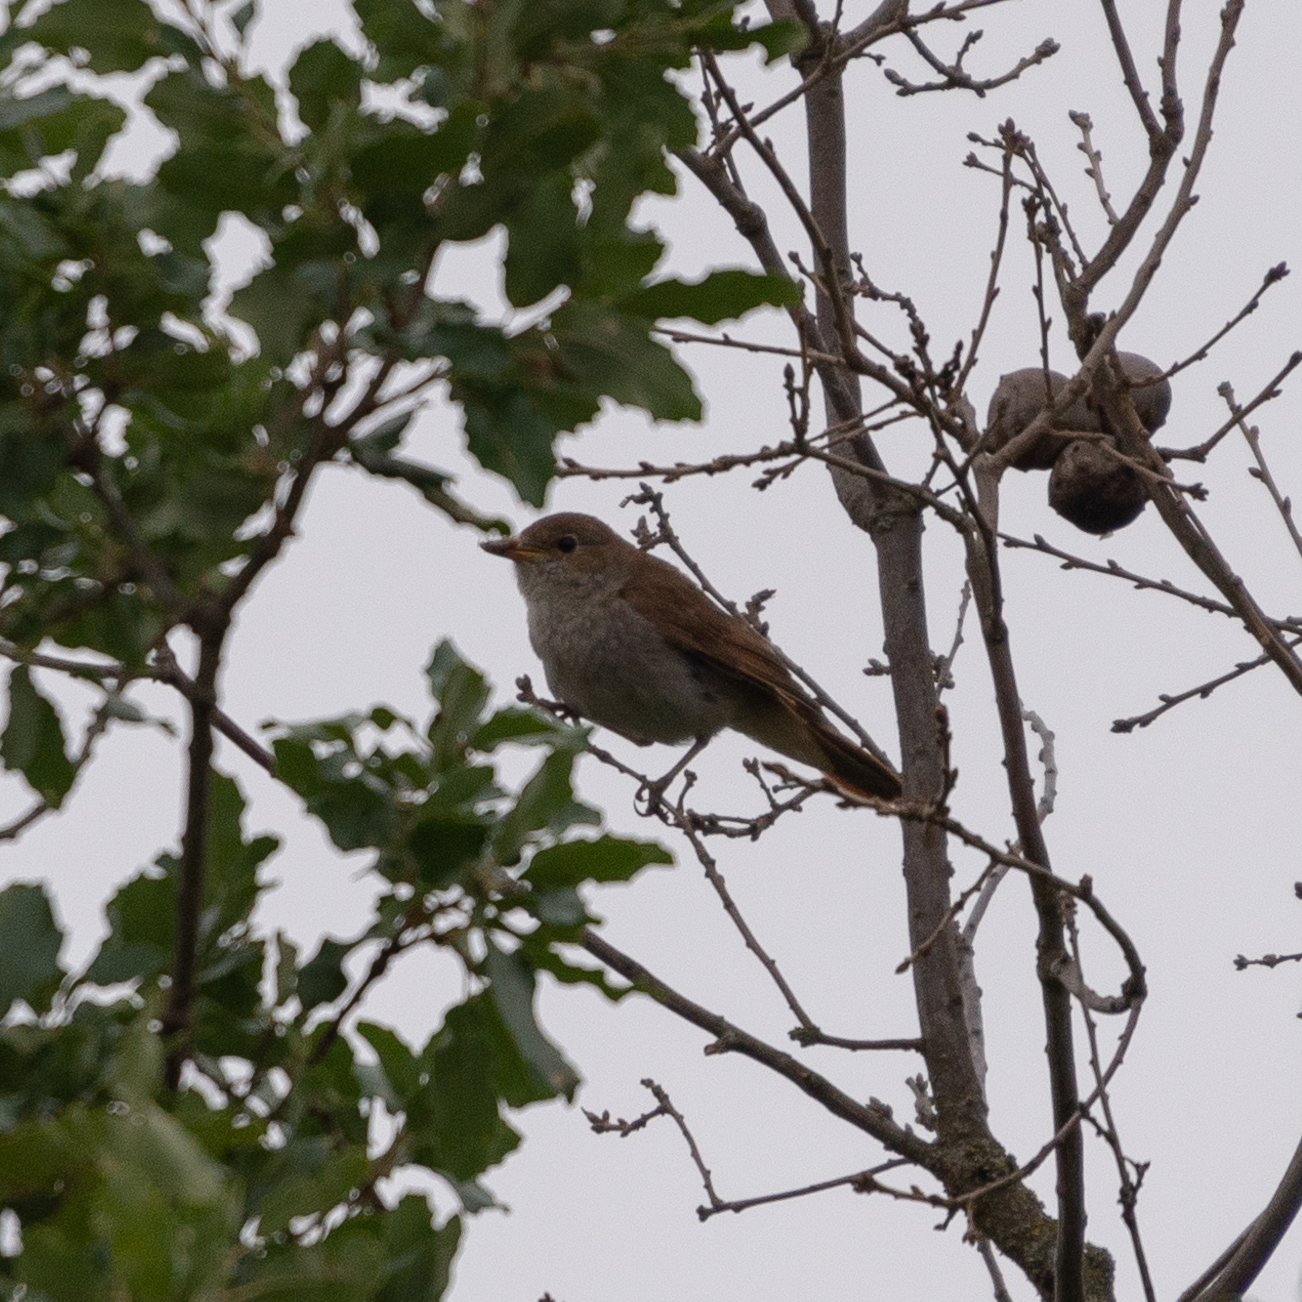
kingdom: Animalia
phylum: Chordata
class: Aves
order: Passeriformes
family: Muscicapidae
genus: Luscinia
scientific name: Luscinia megarhynchos
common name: Common nightingale
